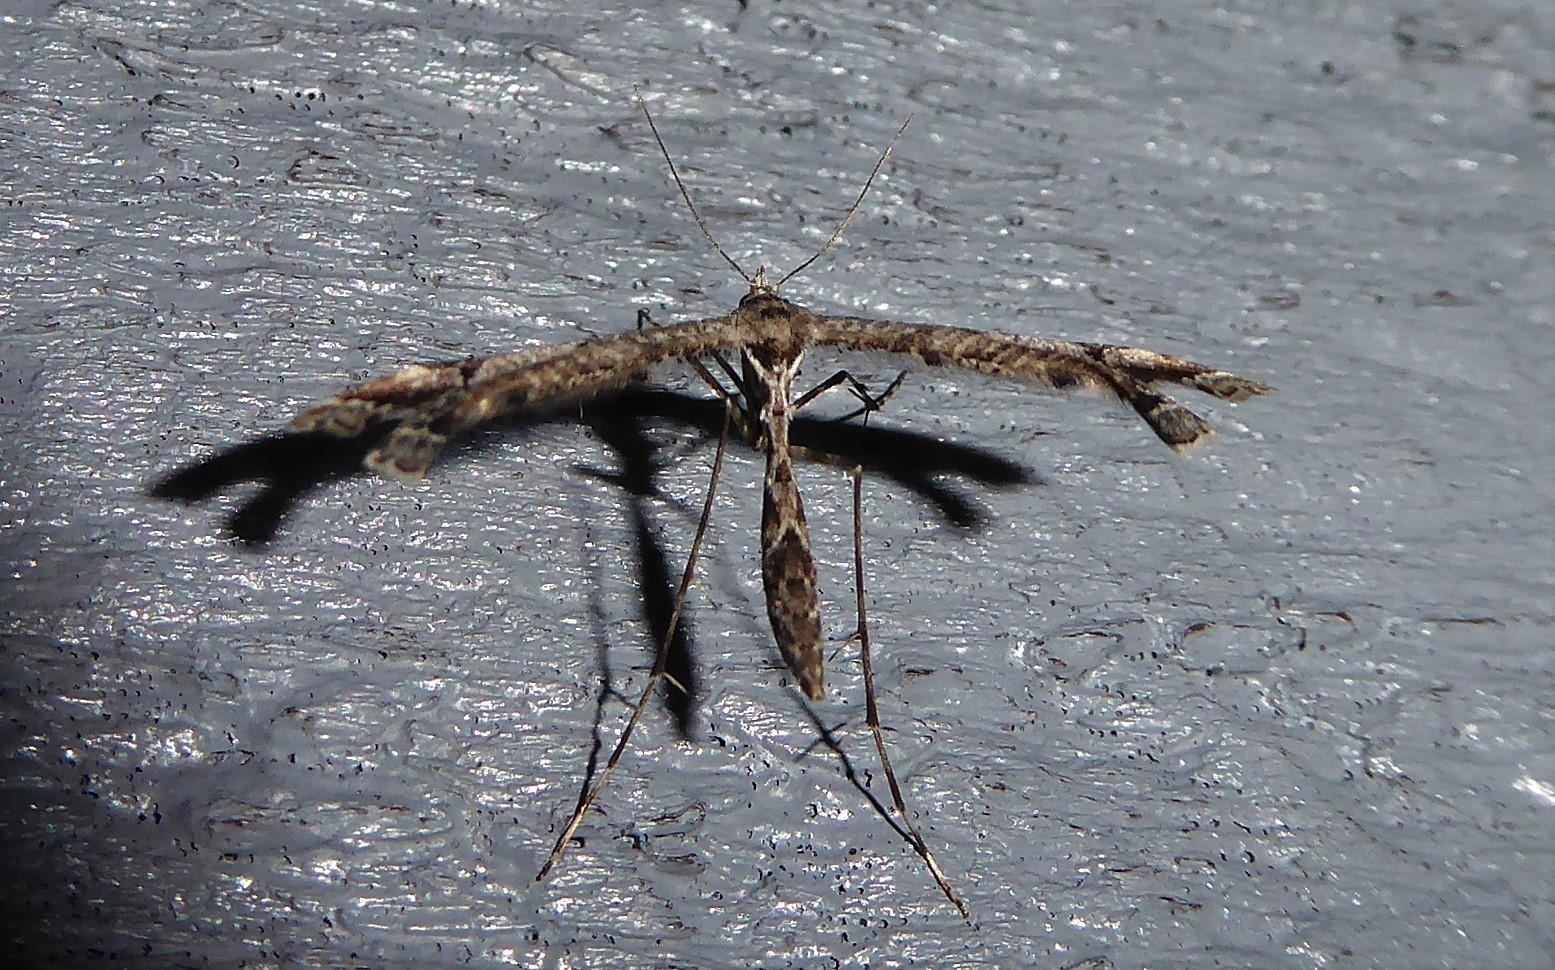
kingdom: Animalia
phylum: Arthropoda
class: Insecta
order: Lepidoptera
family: Pterophoridae
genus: Amblyptilia
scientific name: Amblyptilia repletalis
